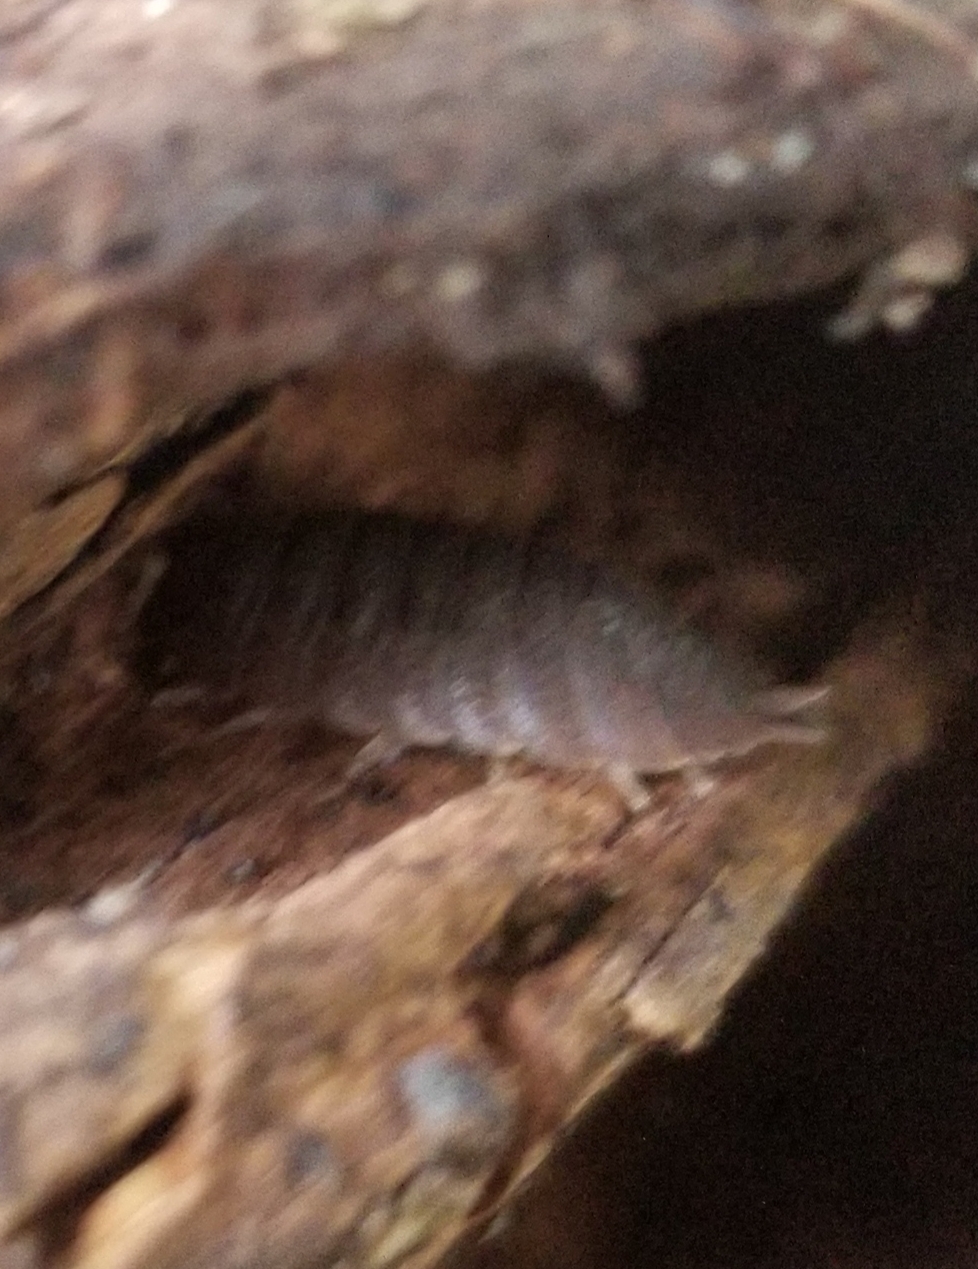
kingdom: Animalia
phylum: Arthropoda
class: Malacostraca
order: Isopoda
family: Porcellionidae
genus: Porcellio
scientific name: Porcellio dilatatus
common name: Isopod
